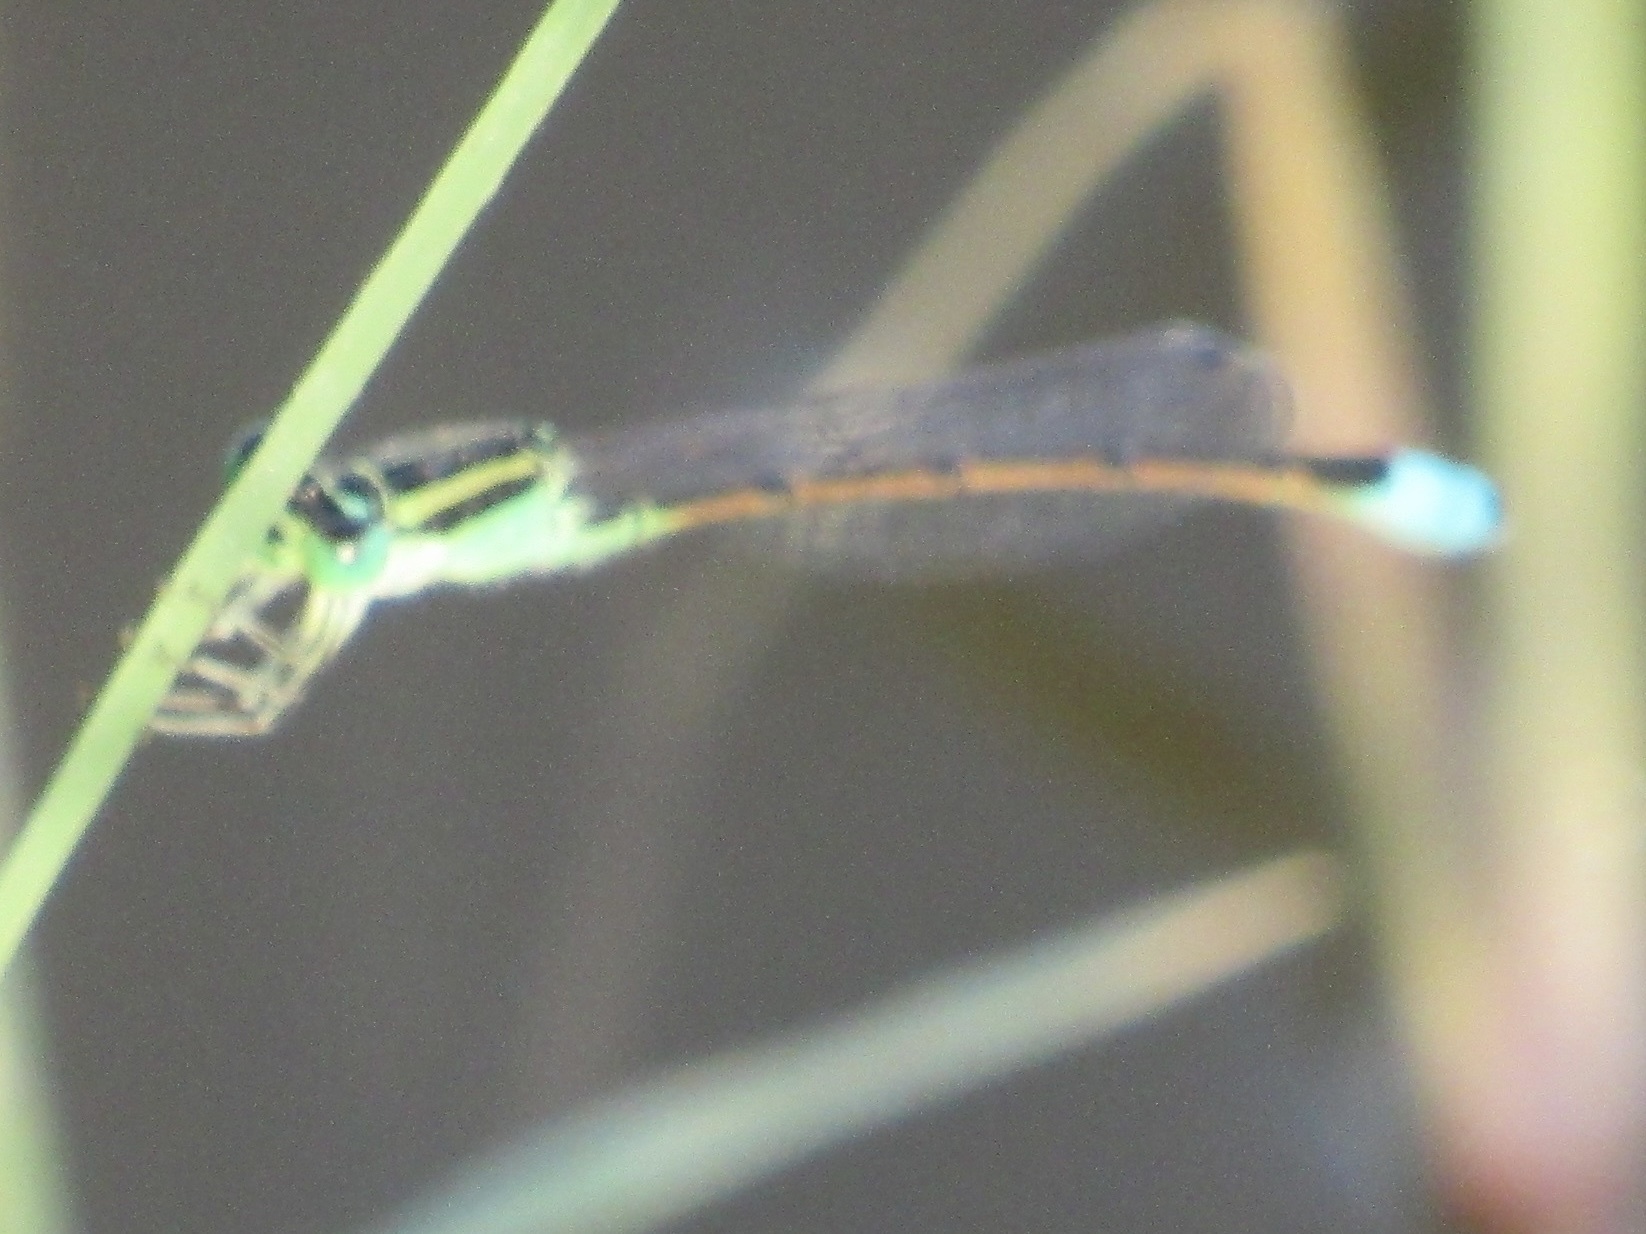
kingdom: Animalia
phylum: Arthropoda
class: Insecta
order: Odonata
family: Coenagrionidae
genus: Ischnura
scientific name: Ischnura barberi
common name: Desert forktail
